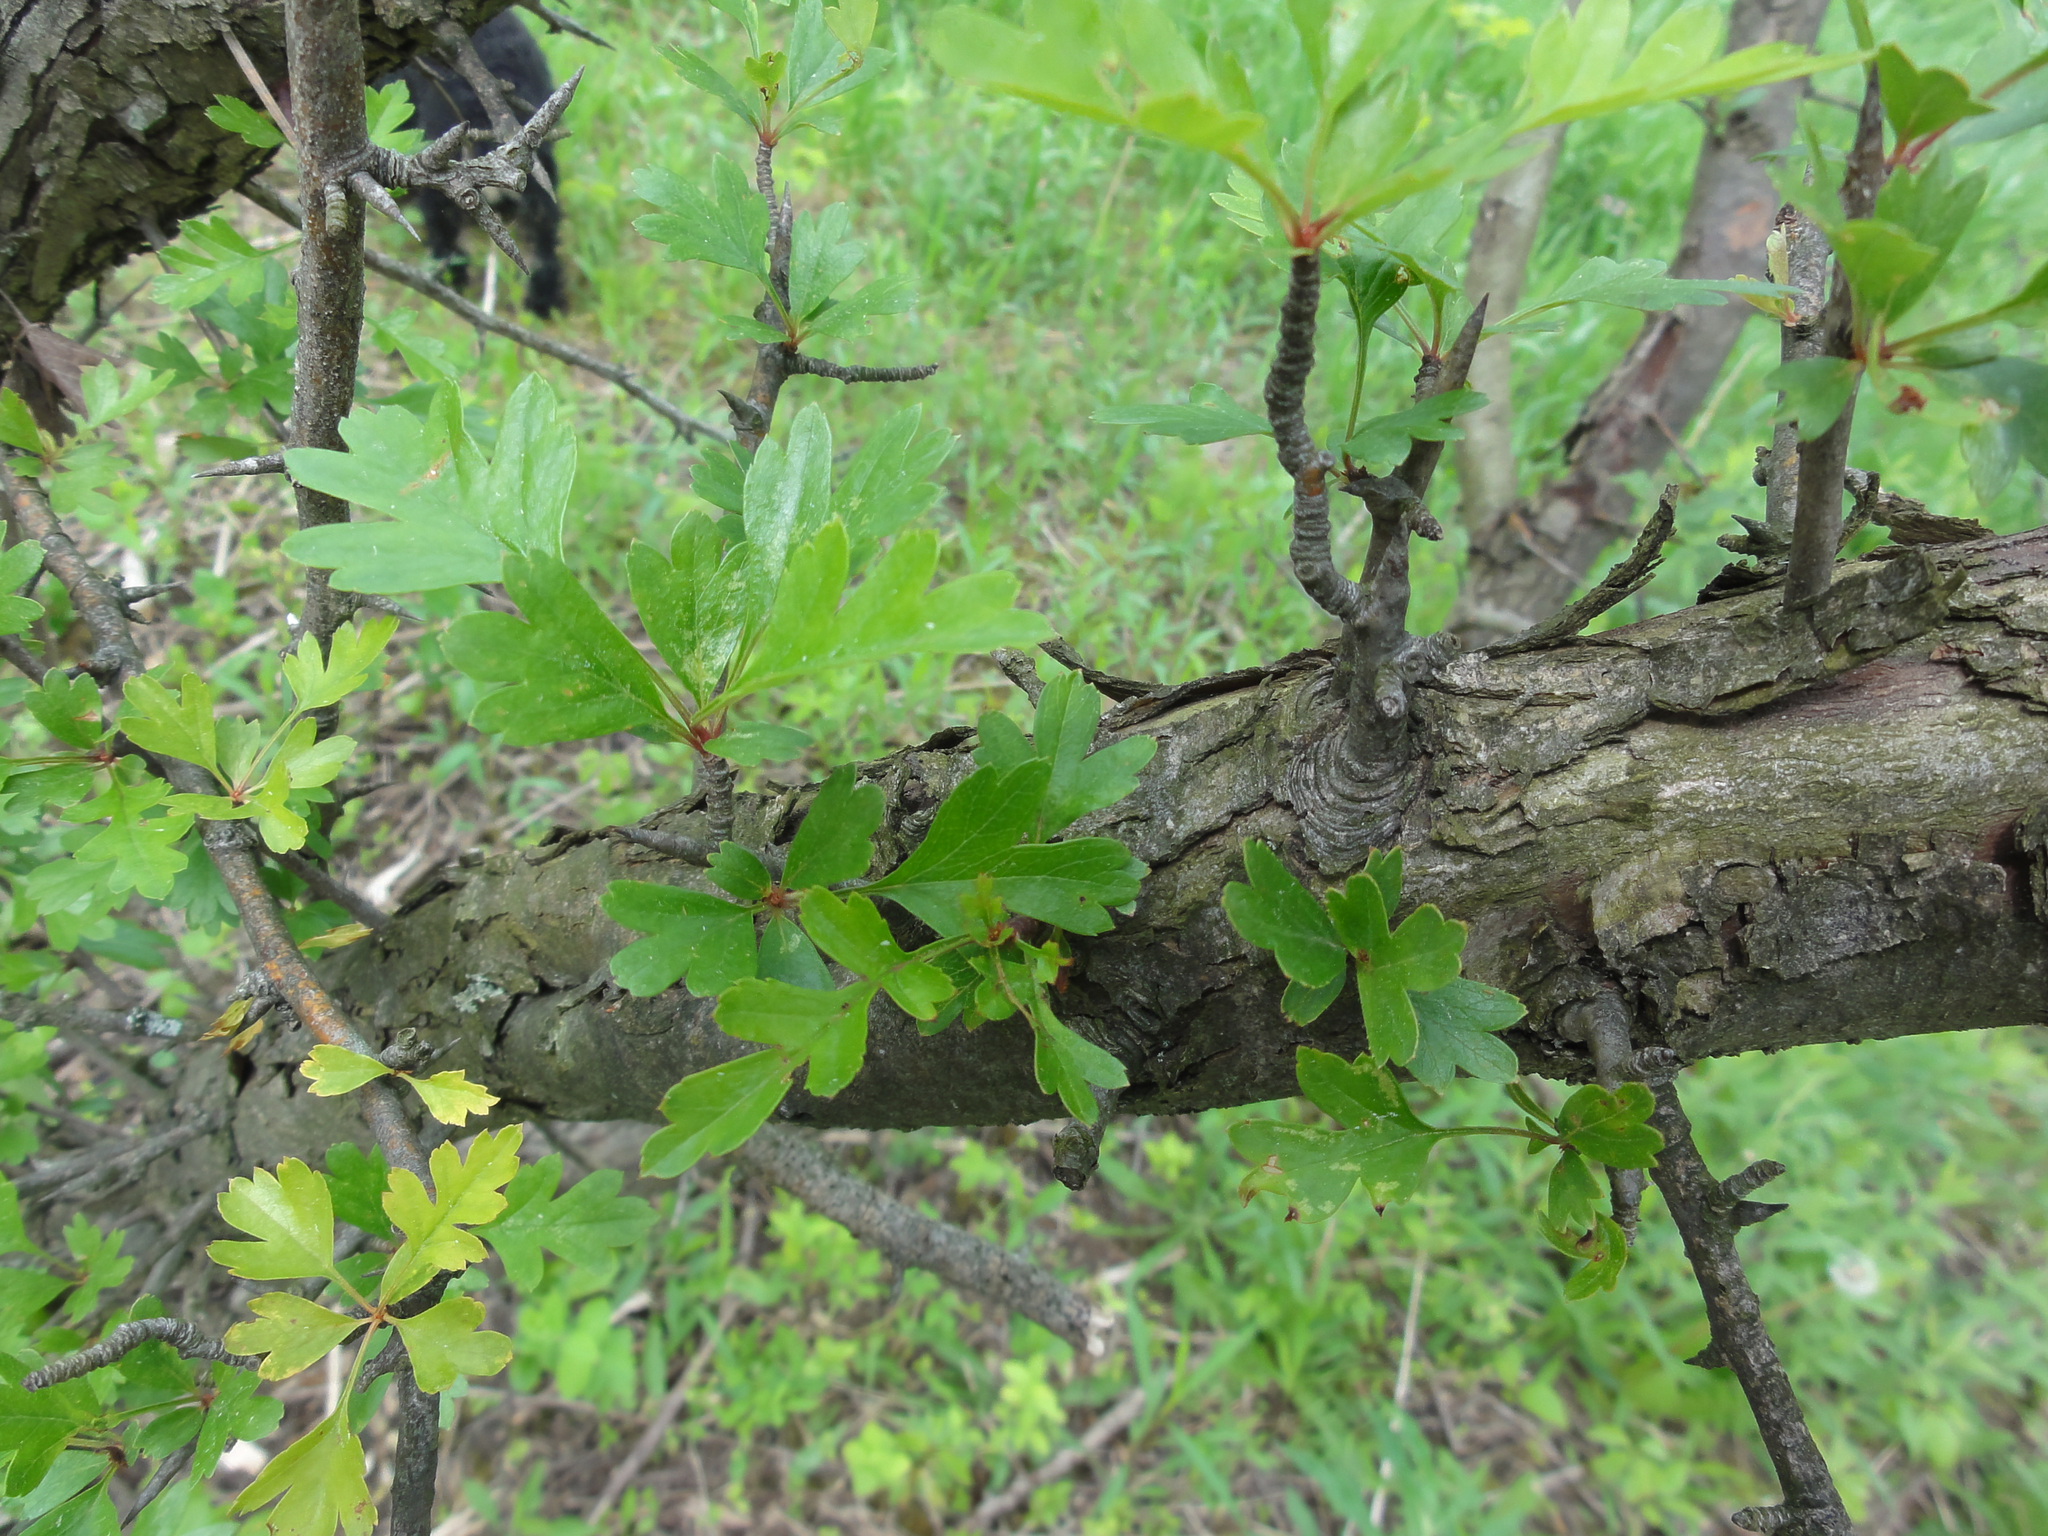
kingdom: Plantae
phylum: Tracheophyta
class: Magnoliopsida
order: Rosales
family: Rosaceae
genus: Crataegus
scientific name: Crataegus monogyna
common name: Hawthorn
